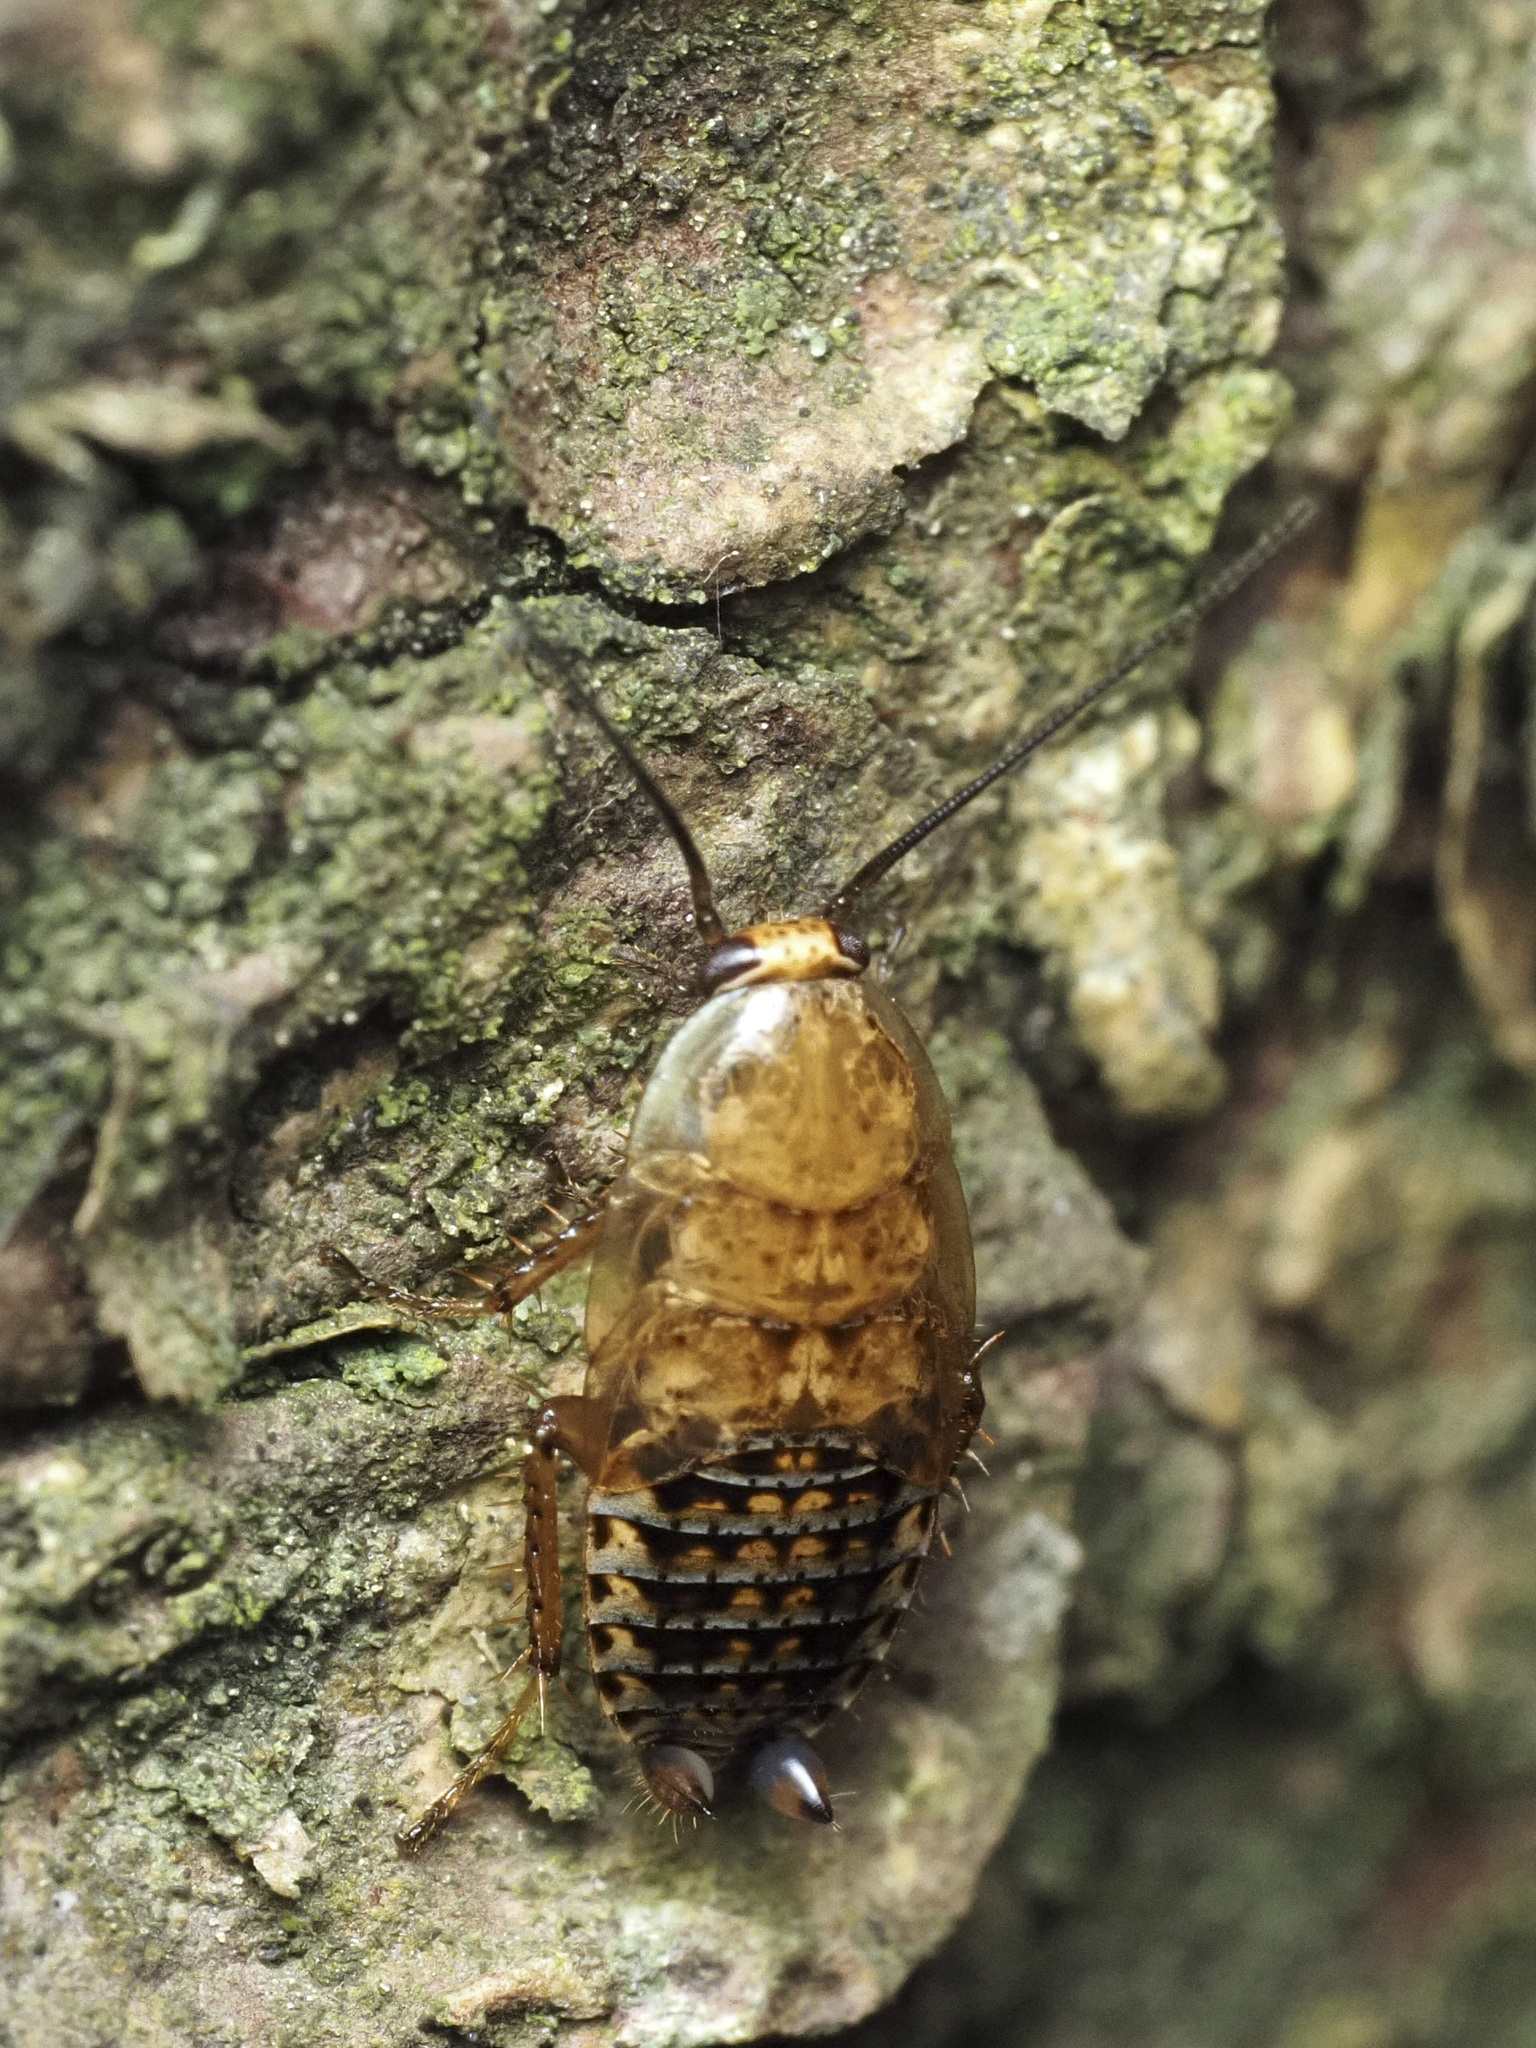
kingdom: Animalia
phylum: Arthropoda
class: Insecta
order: Blattodea
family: Ectobiidae
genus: Ectobius
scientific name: Ectobius lapponicus
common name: Dusky cockroach
